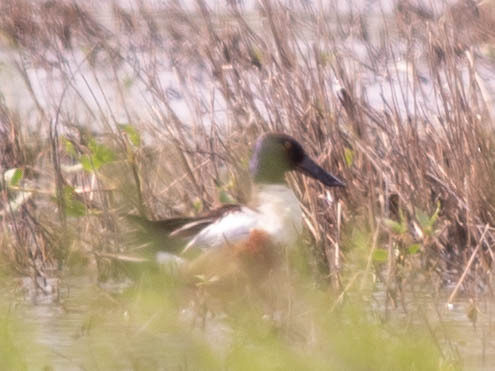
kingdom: Animalia
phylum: Chordata
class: Aves
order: Anseriformes
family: Anatidae
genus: Spatula
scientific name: Spatula clypeata
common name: Northern shoveler
